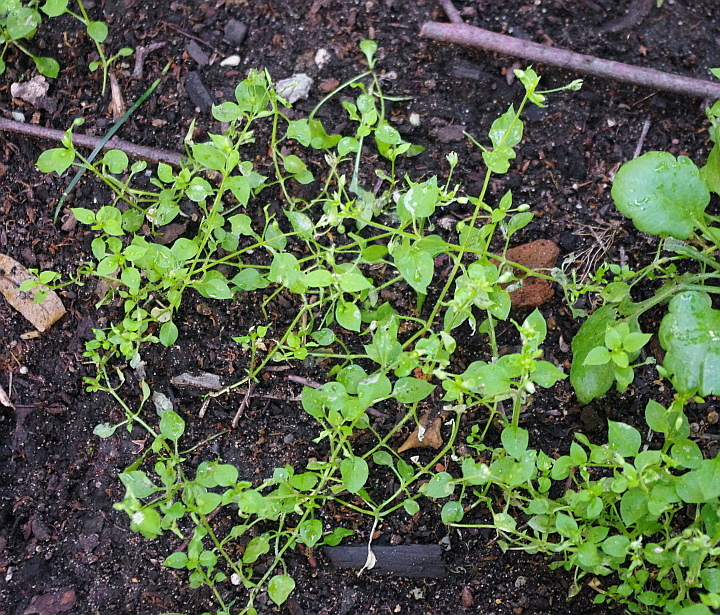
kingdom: Plantae
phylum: Tracheophyta
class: Magnoliopsida
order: Caryophyllales
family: Caryophyllaceae
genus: Stellaria
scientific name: Stellaria media
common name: Common chickweed
